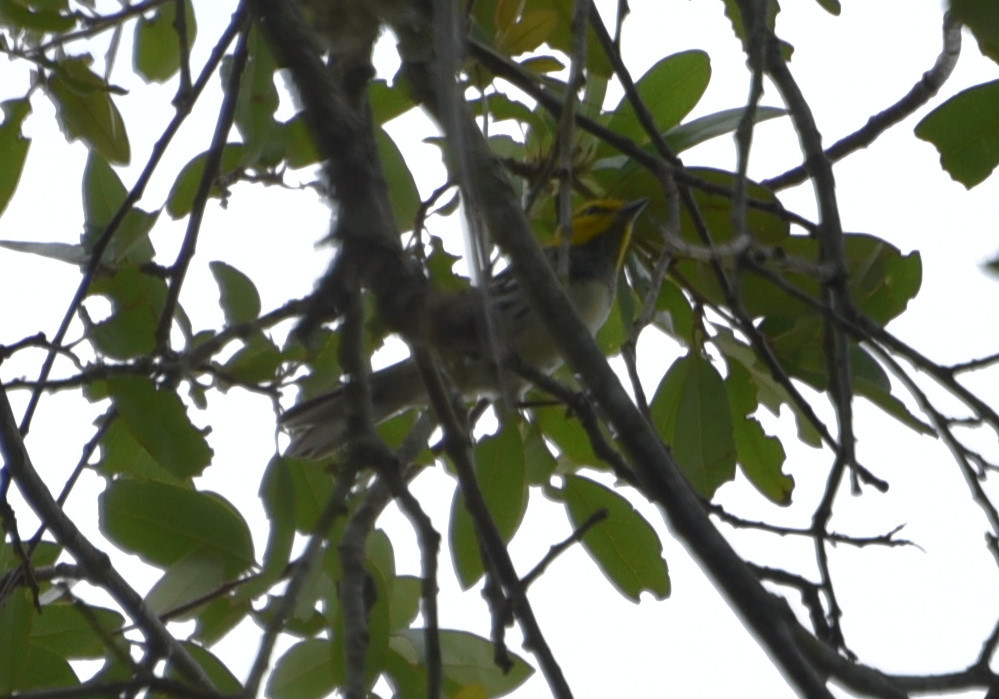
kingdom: Animalia
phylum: Chordata
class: Aves
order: Passeriformes
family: Parulidae
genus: Setophaga
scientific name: Setophaga chrysoparia
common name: Golden-cheeked warbler
